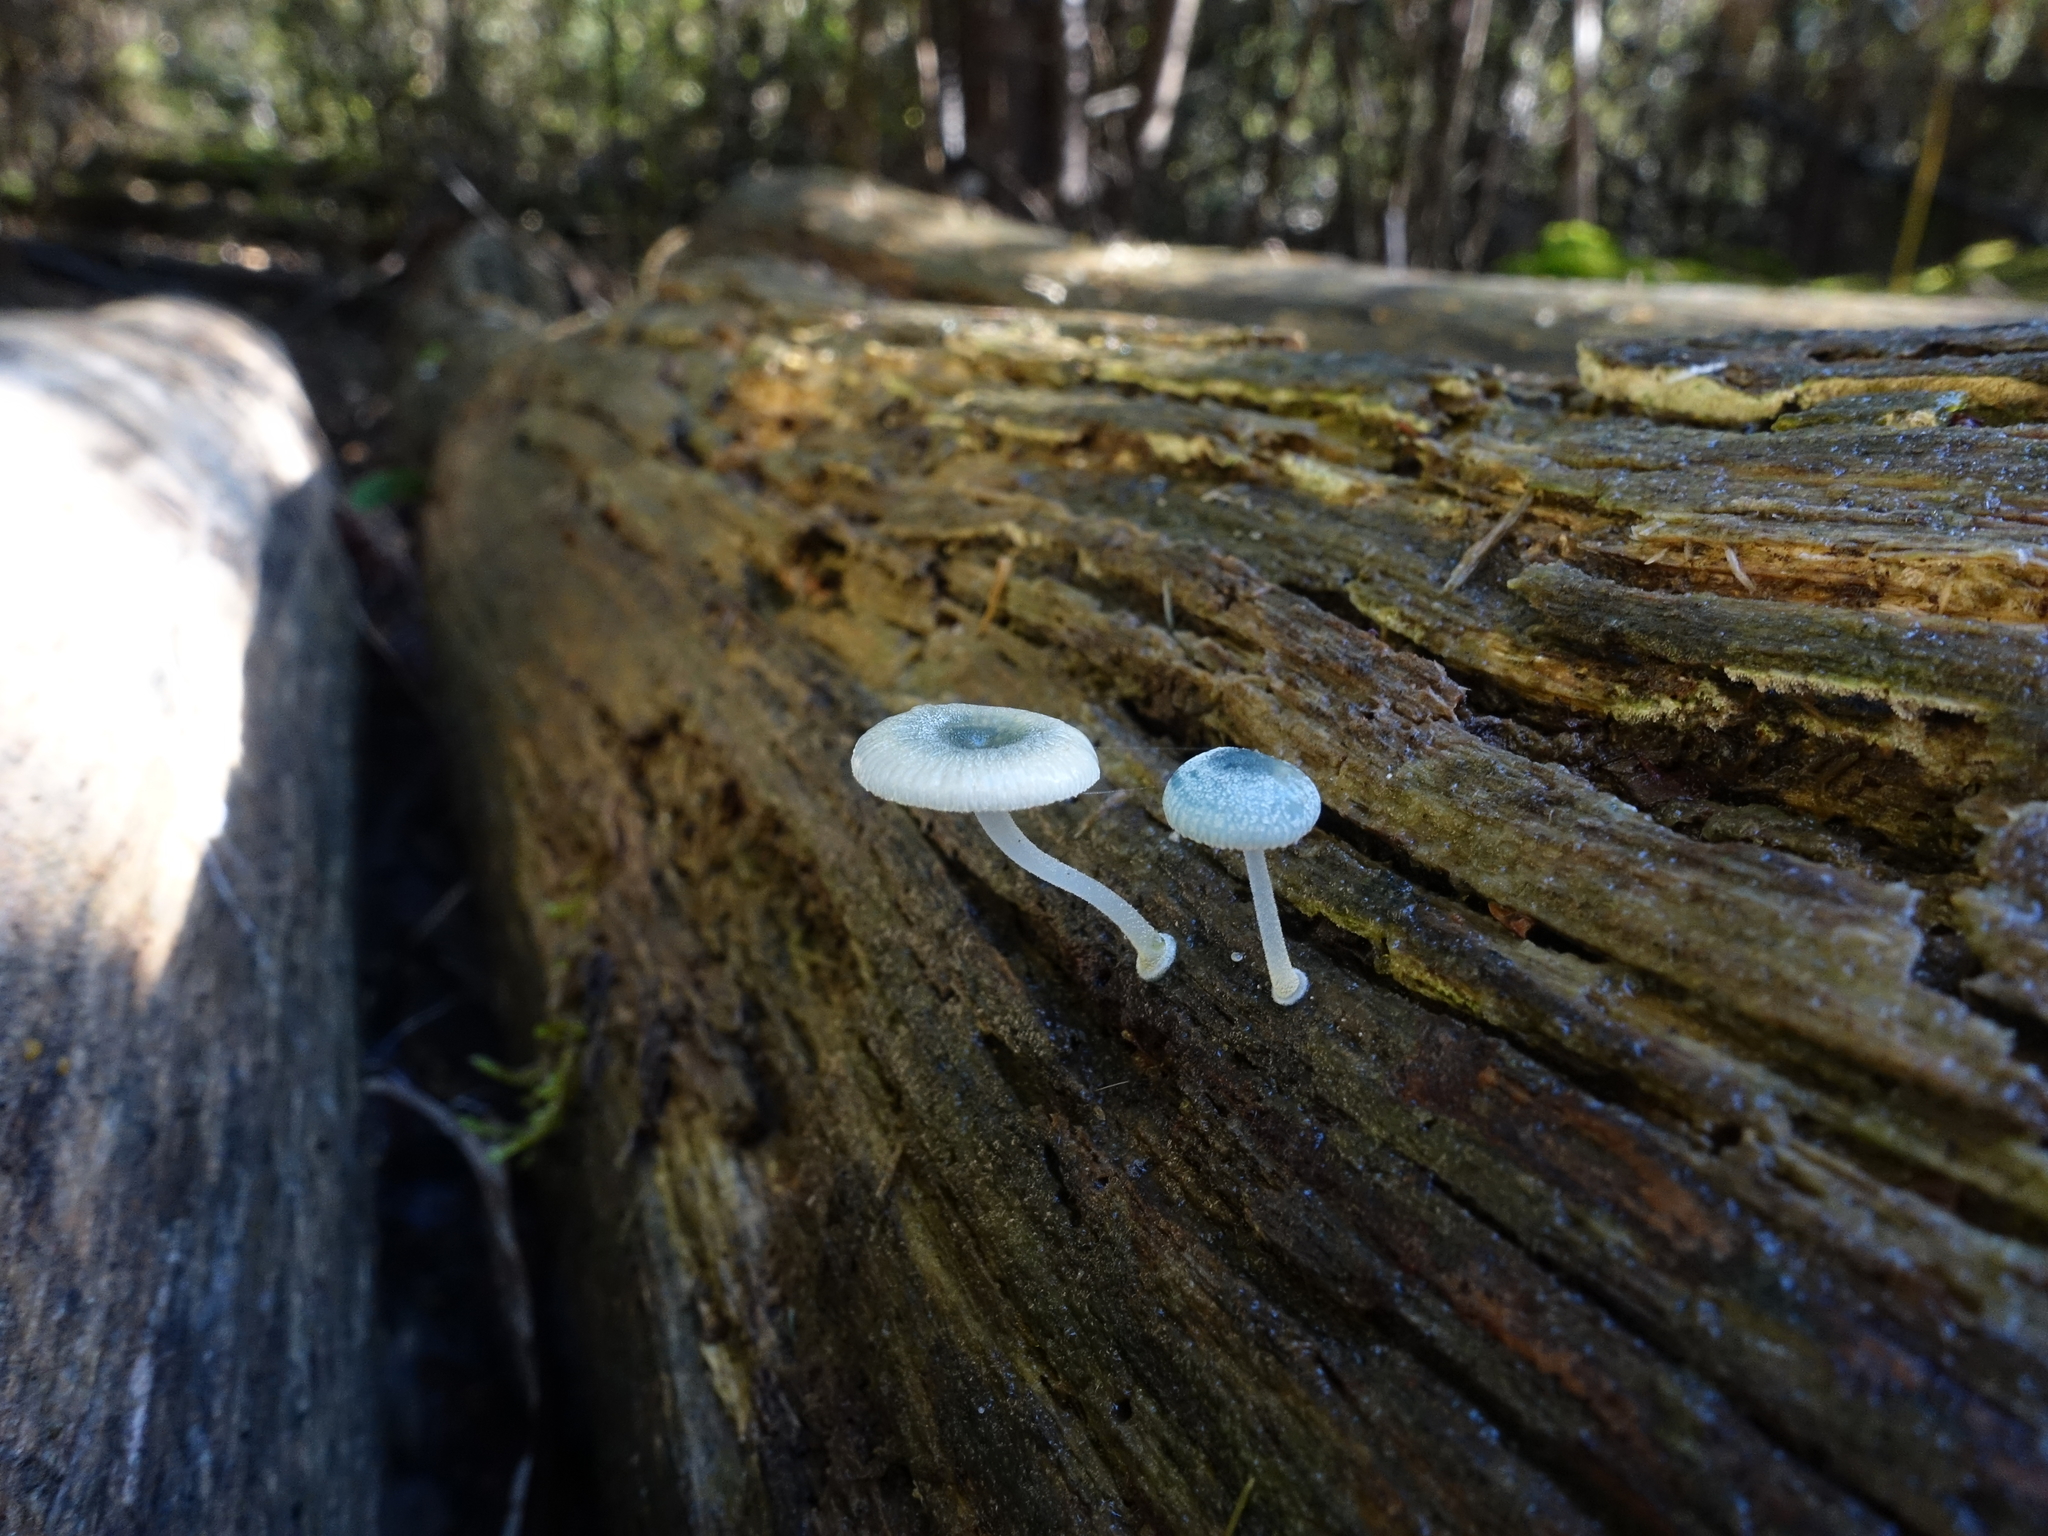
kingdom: Fungi
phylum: Basidiomycota
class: Agaricomycetes
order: Agaricales
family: Mycenaceae
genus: Mycena
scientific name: Mycena interrupta
